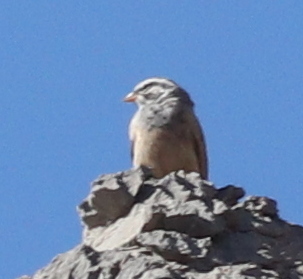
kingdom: Animalia
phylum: Chordata
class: Aves
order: Passeriformes
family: Emberizidae
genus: Emberiza
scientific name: Emberiza striolata
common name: Striolated bunting
